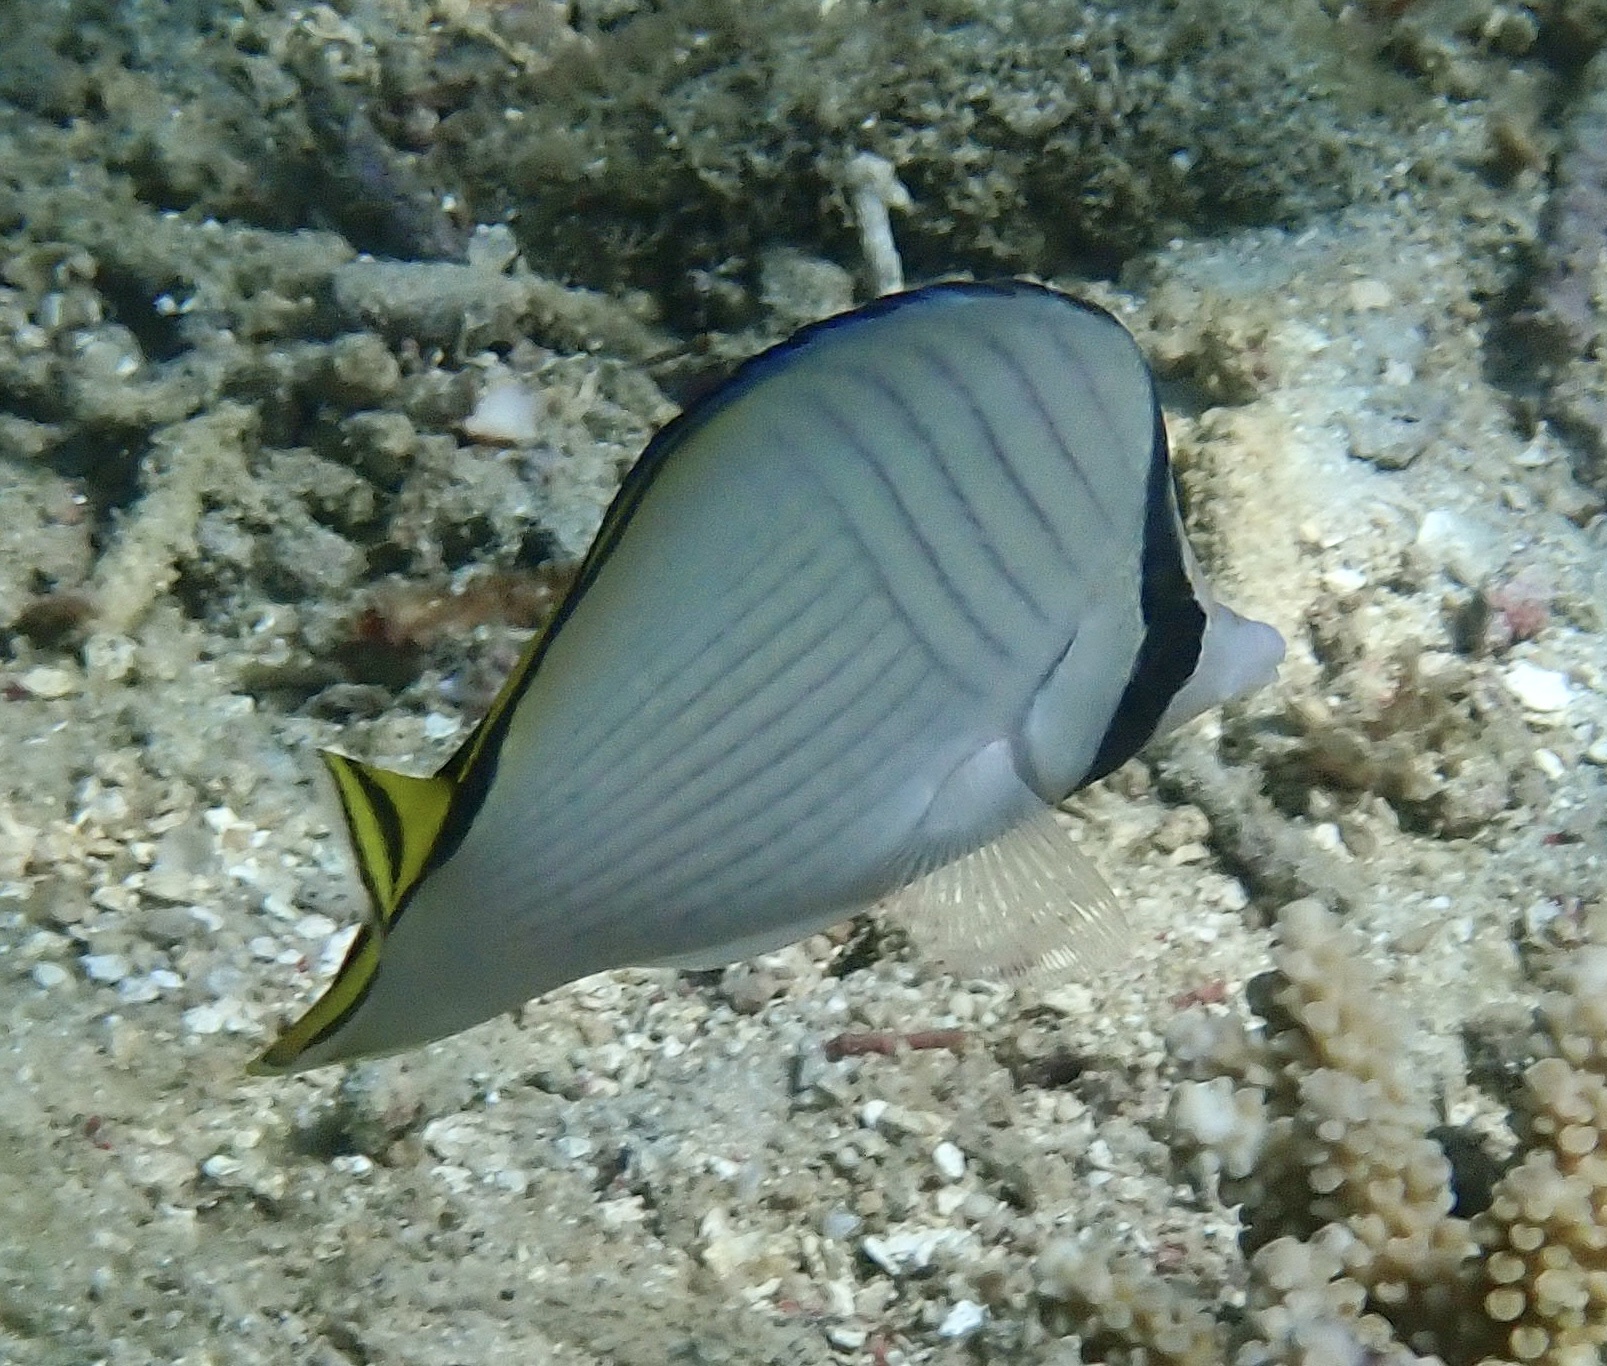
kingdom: Animalia
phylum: Chordata
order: Perciformes
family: Chaetodontidae
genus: Chaetodon
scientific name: Chaetodon vagabundus
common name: Vagabond butterflyfish
